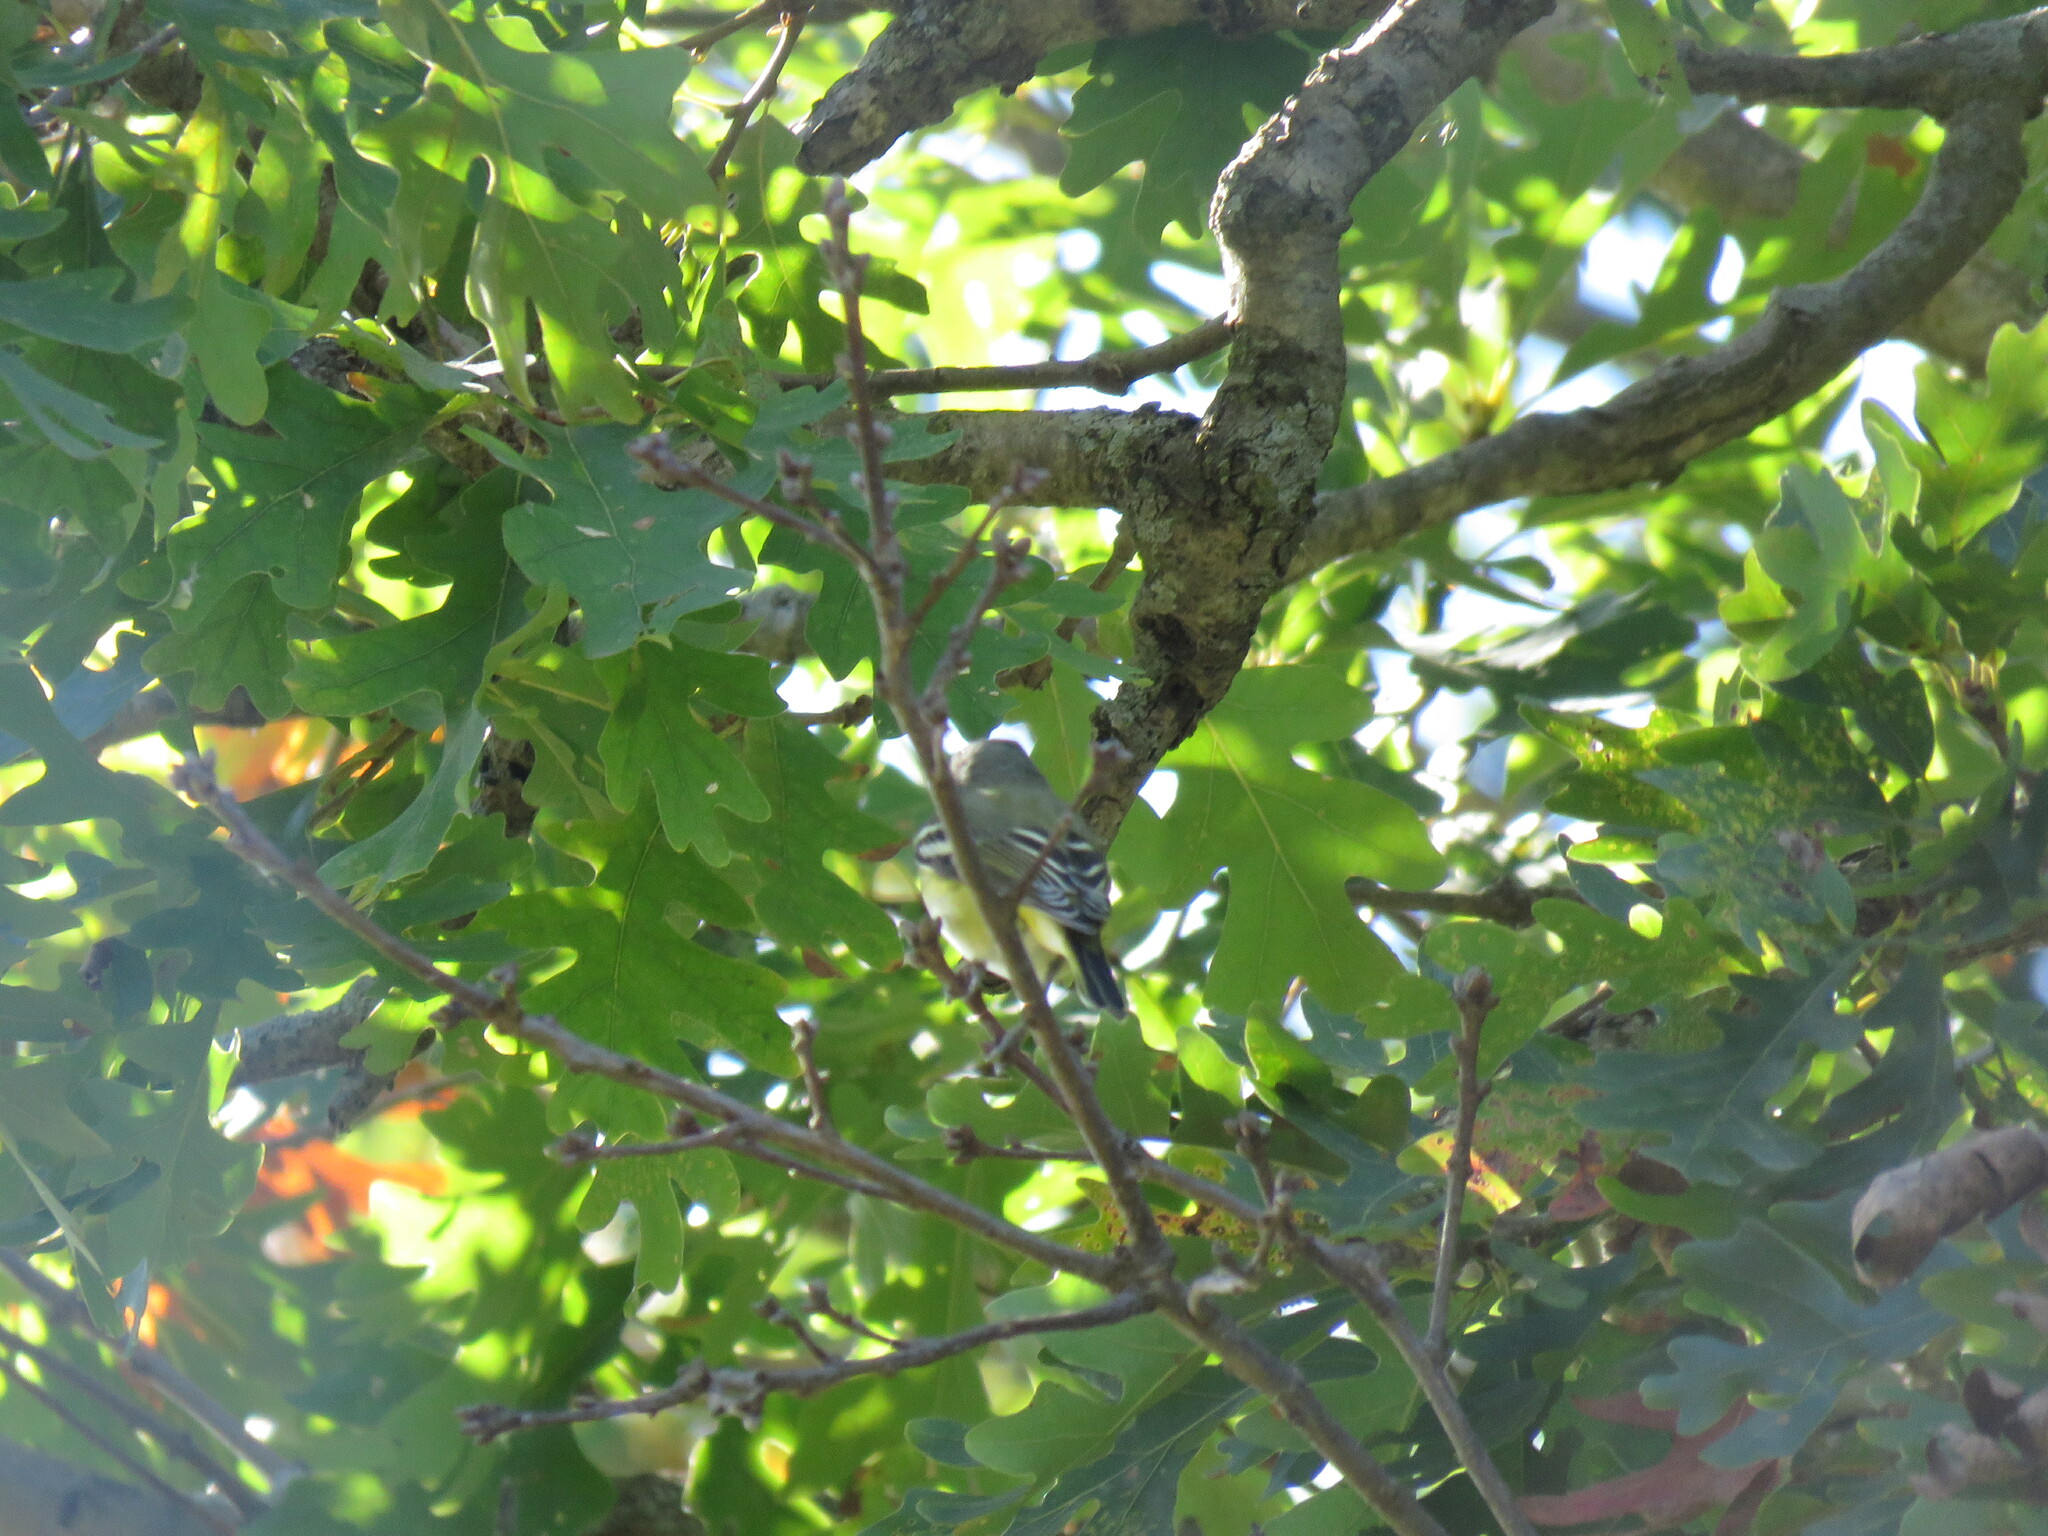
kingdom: Animalia
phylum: Chordata
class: Aves
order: Passeriformes
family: Vireonidae
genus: Vireo
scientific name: Vireo solitarius
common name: Blue-headed vireo
